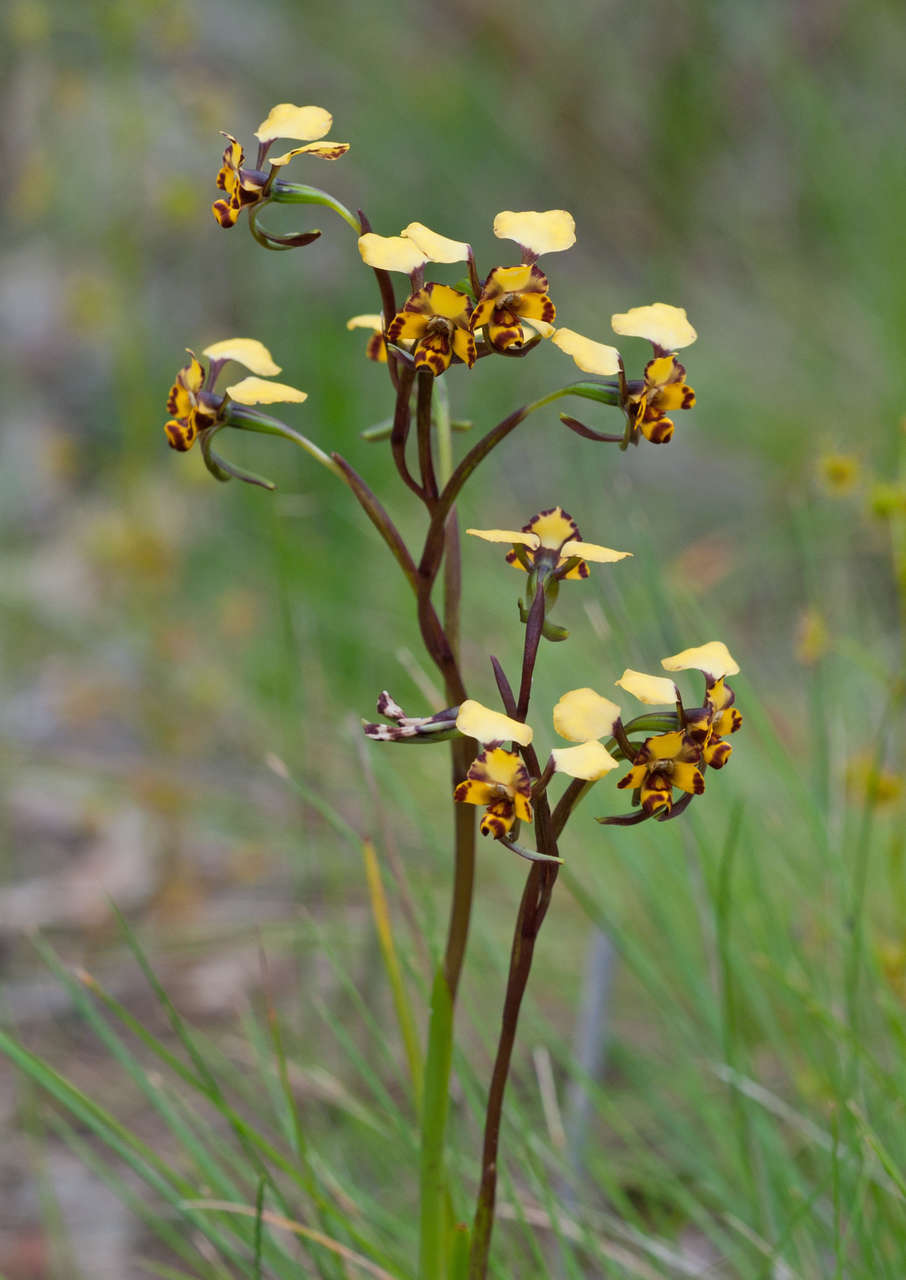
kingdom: Plantae
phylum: Tracheophyta
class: Liliopsida
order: Asparagales
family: Orchidaceae
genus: Diuris
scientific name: Diuris pardina
